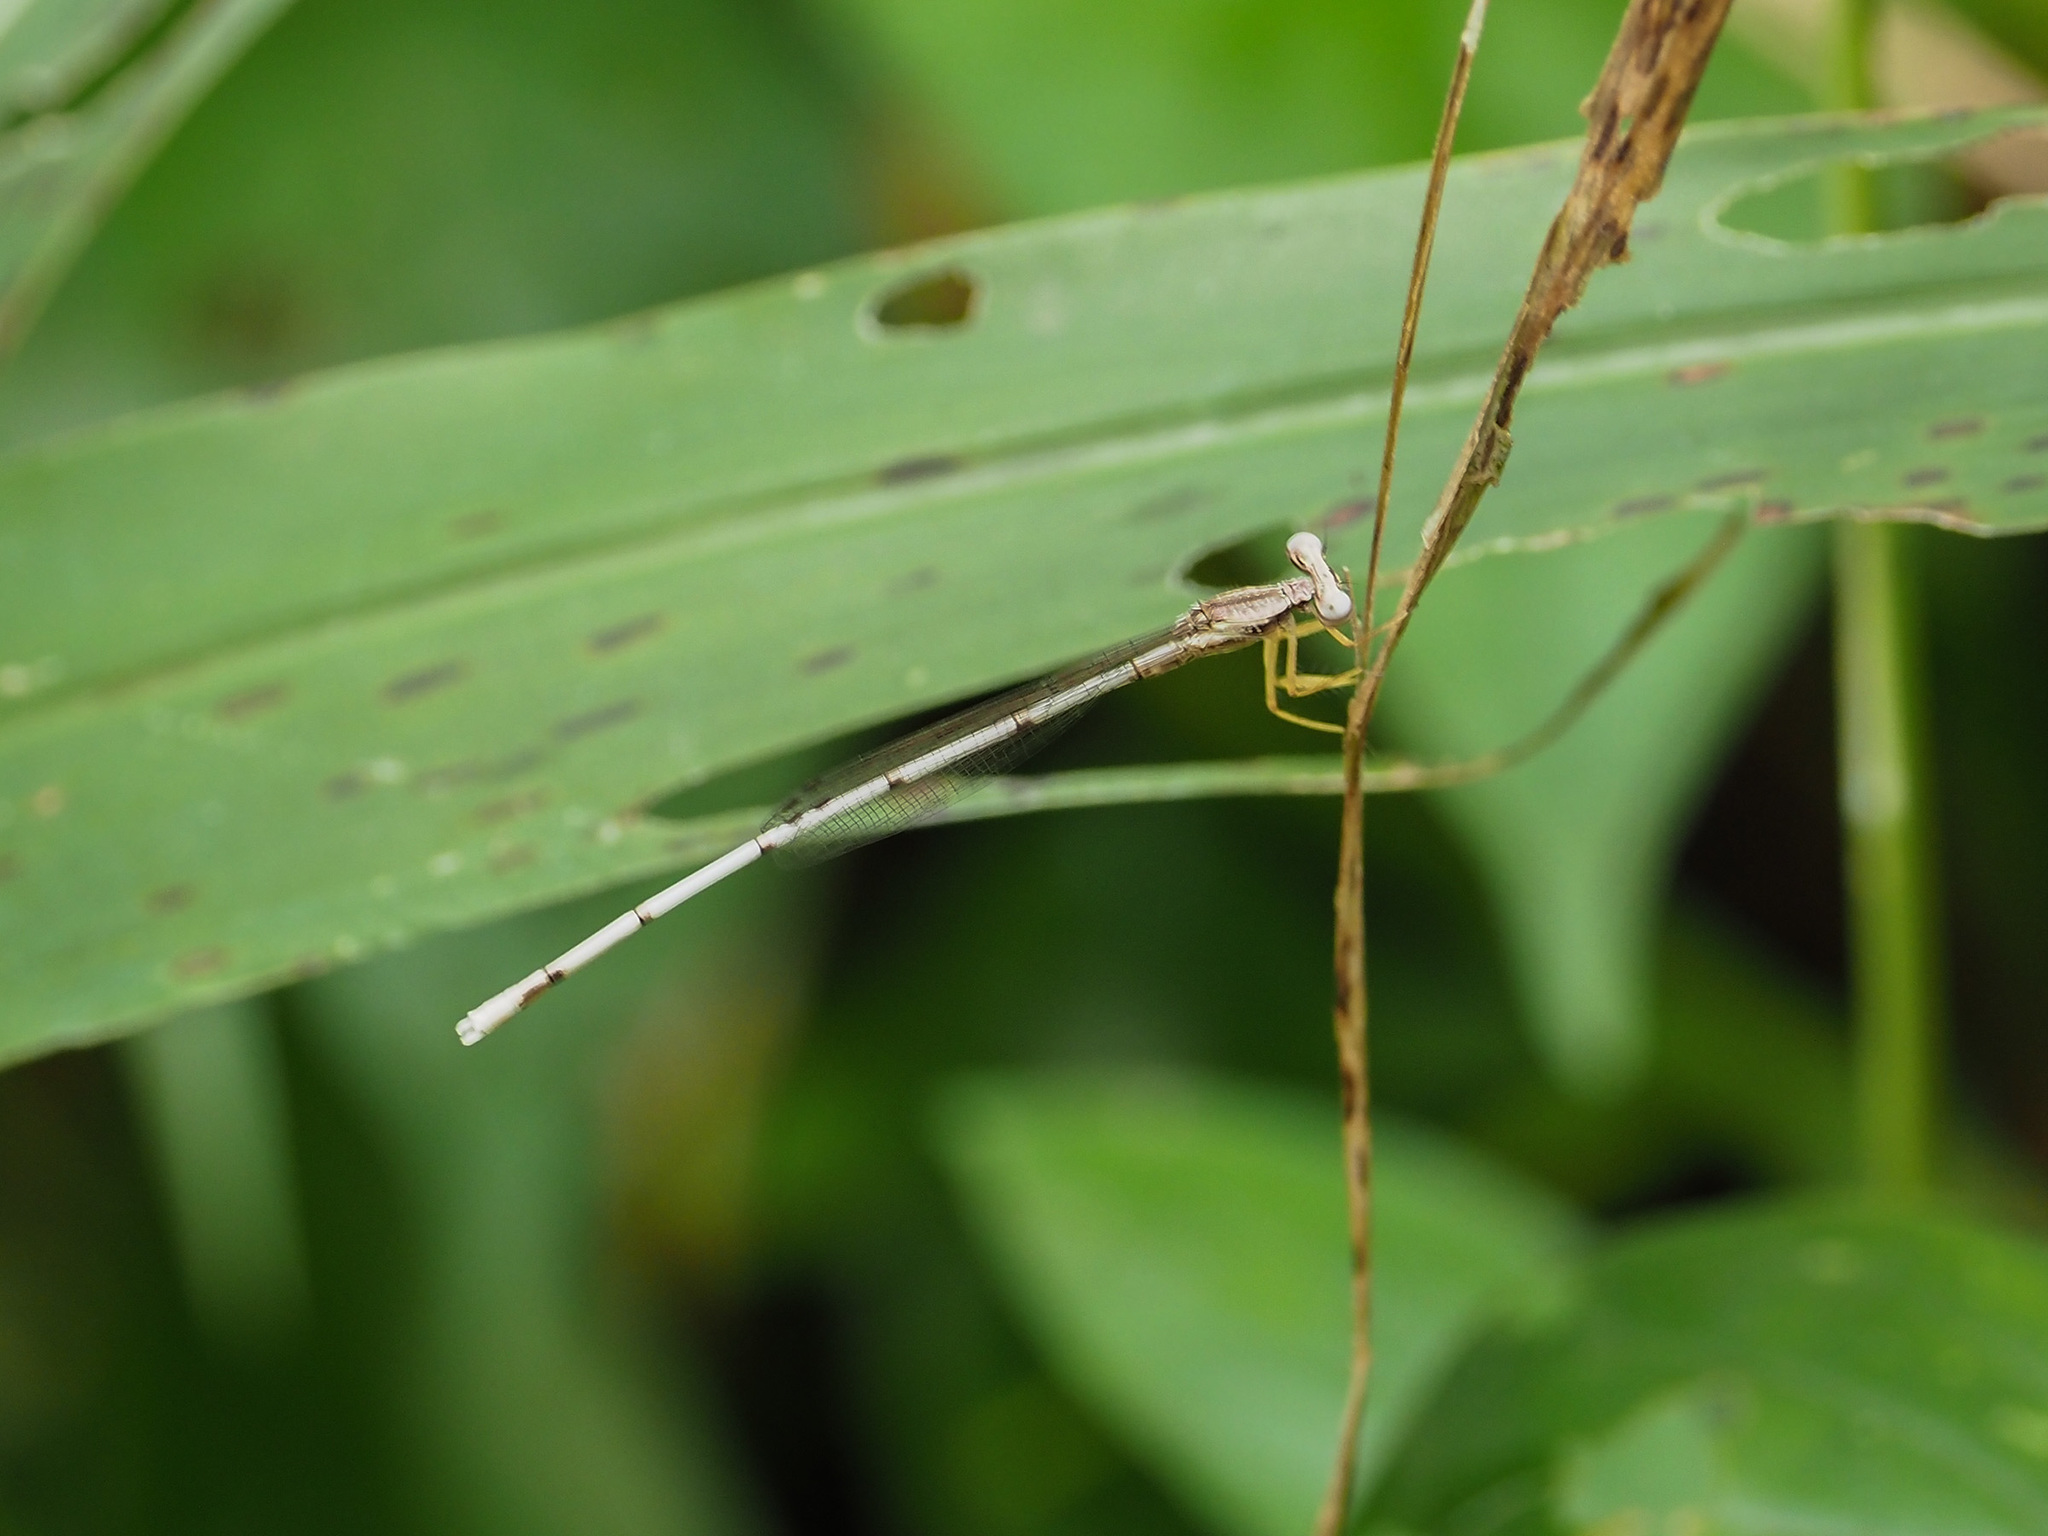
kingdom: Animalia
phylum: Arthropoda
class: Insecta
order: Odonata
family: Platycnemididae
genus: Copera
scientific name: Copera marginipes
